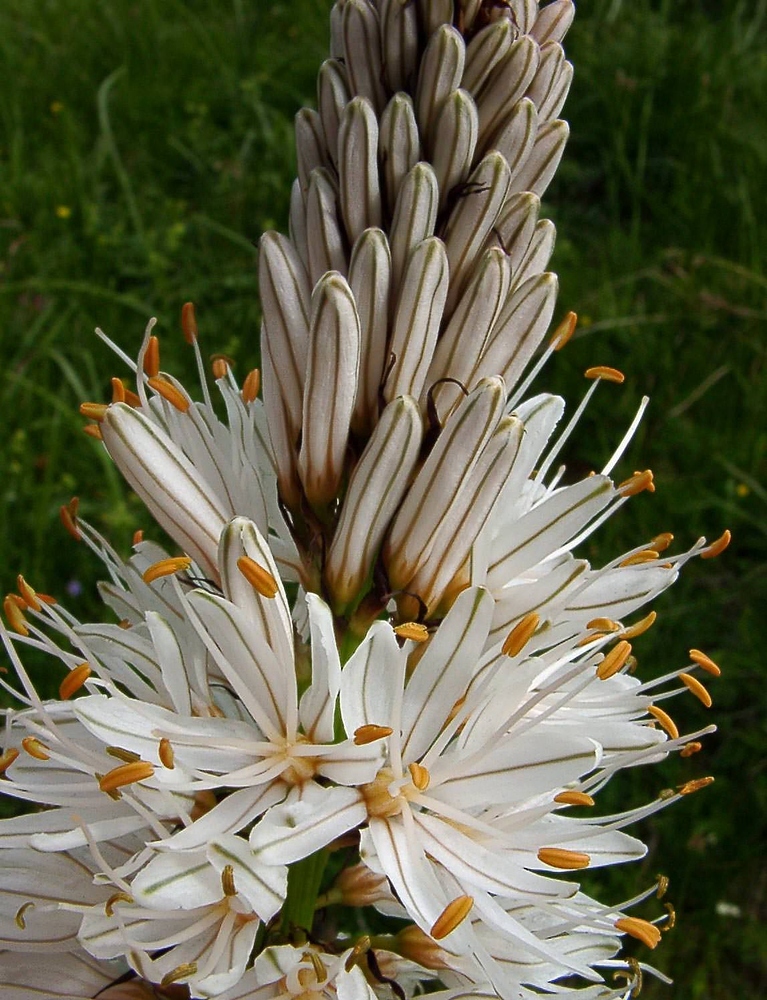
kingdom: Plantae
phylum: Tracheophyta
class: Liliopsida
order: Asparagales
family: Asphodelaceae
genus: Asphodelus
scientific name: Asphodelus albus
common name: White asphodel
